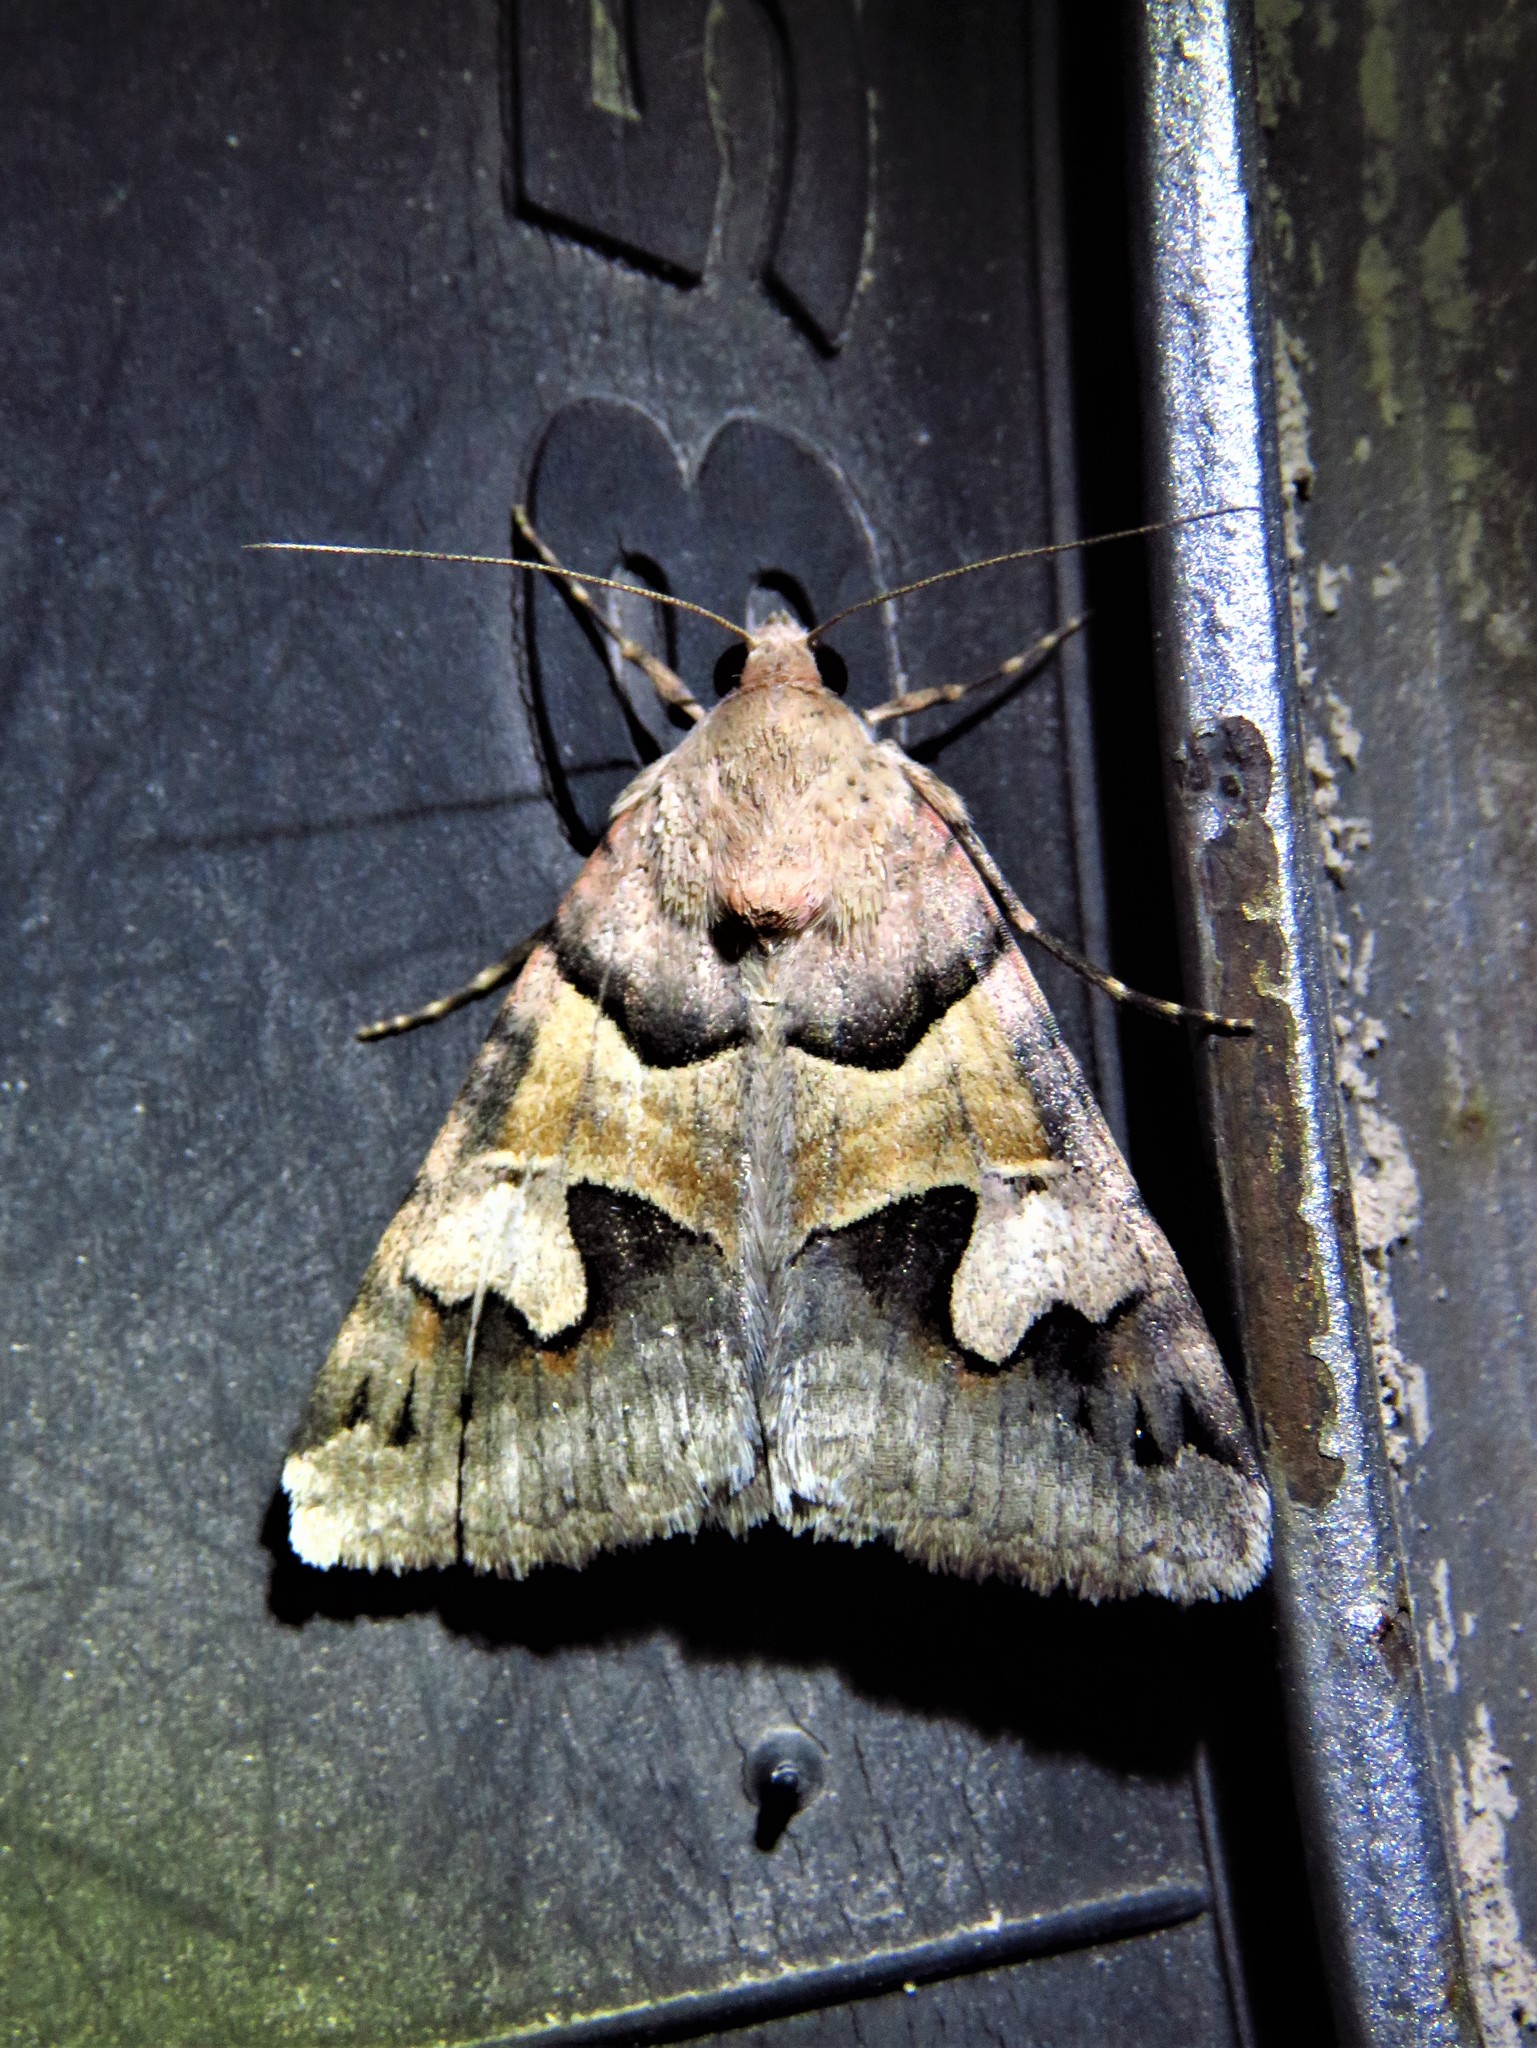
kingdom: Animalia
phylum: Arthropoda
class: Insecta
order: Lepidoptera
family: Erebidae
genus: Drasteria
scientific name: Drasteria pallescens
